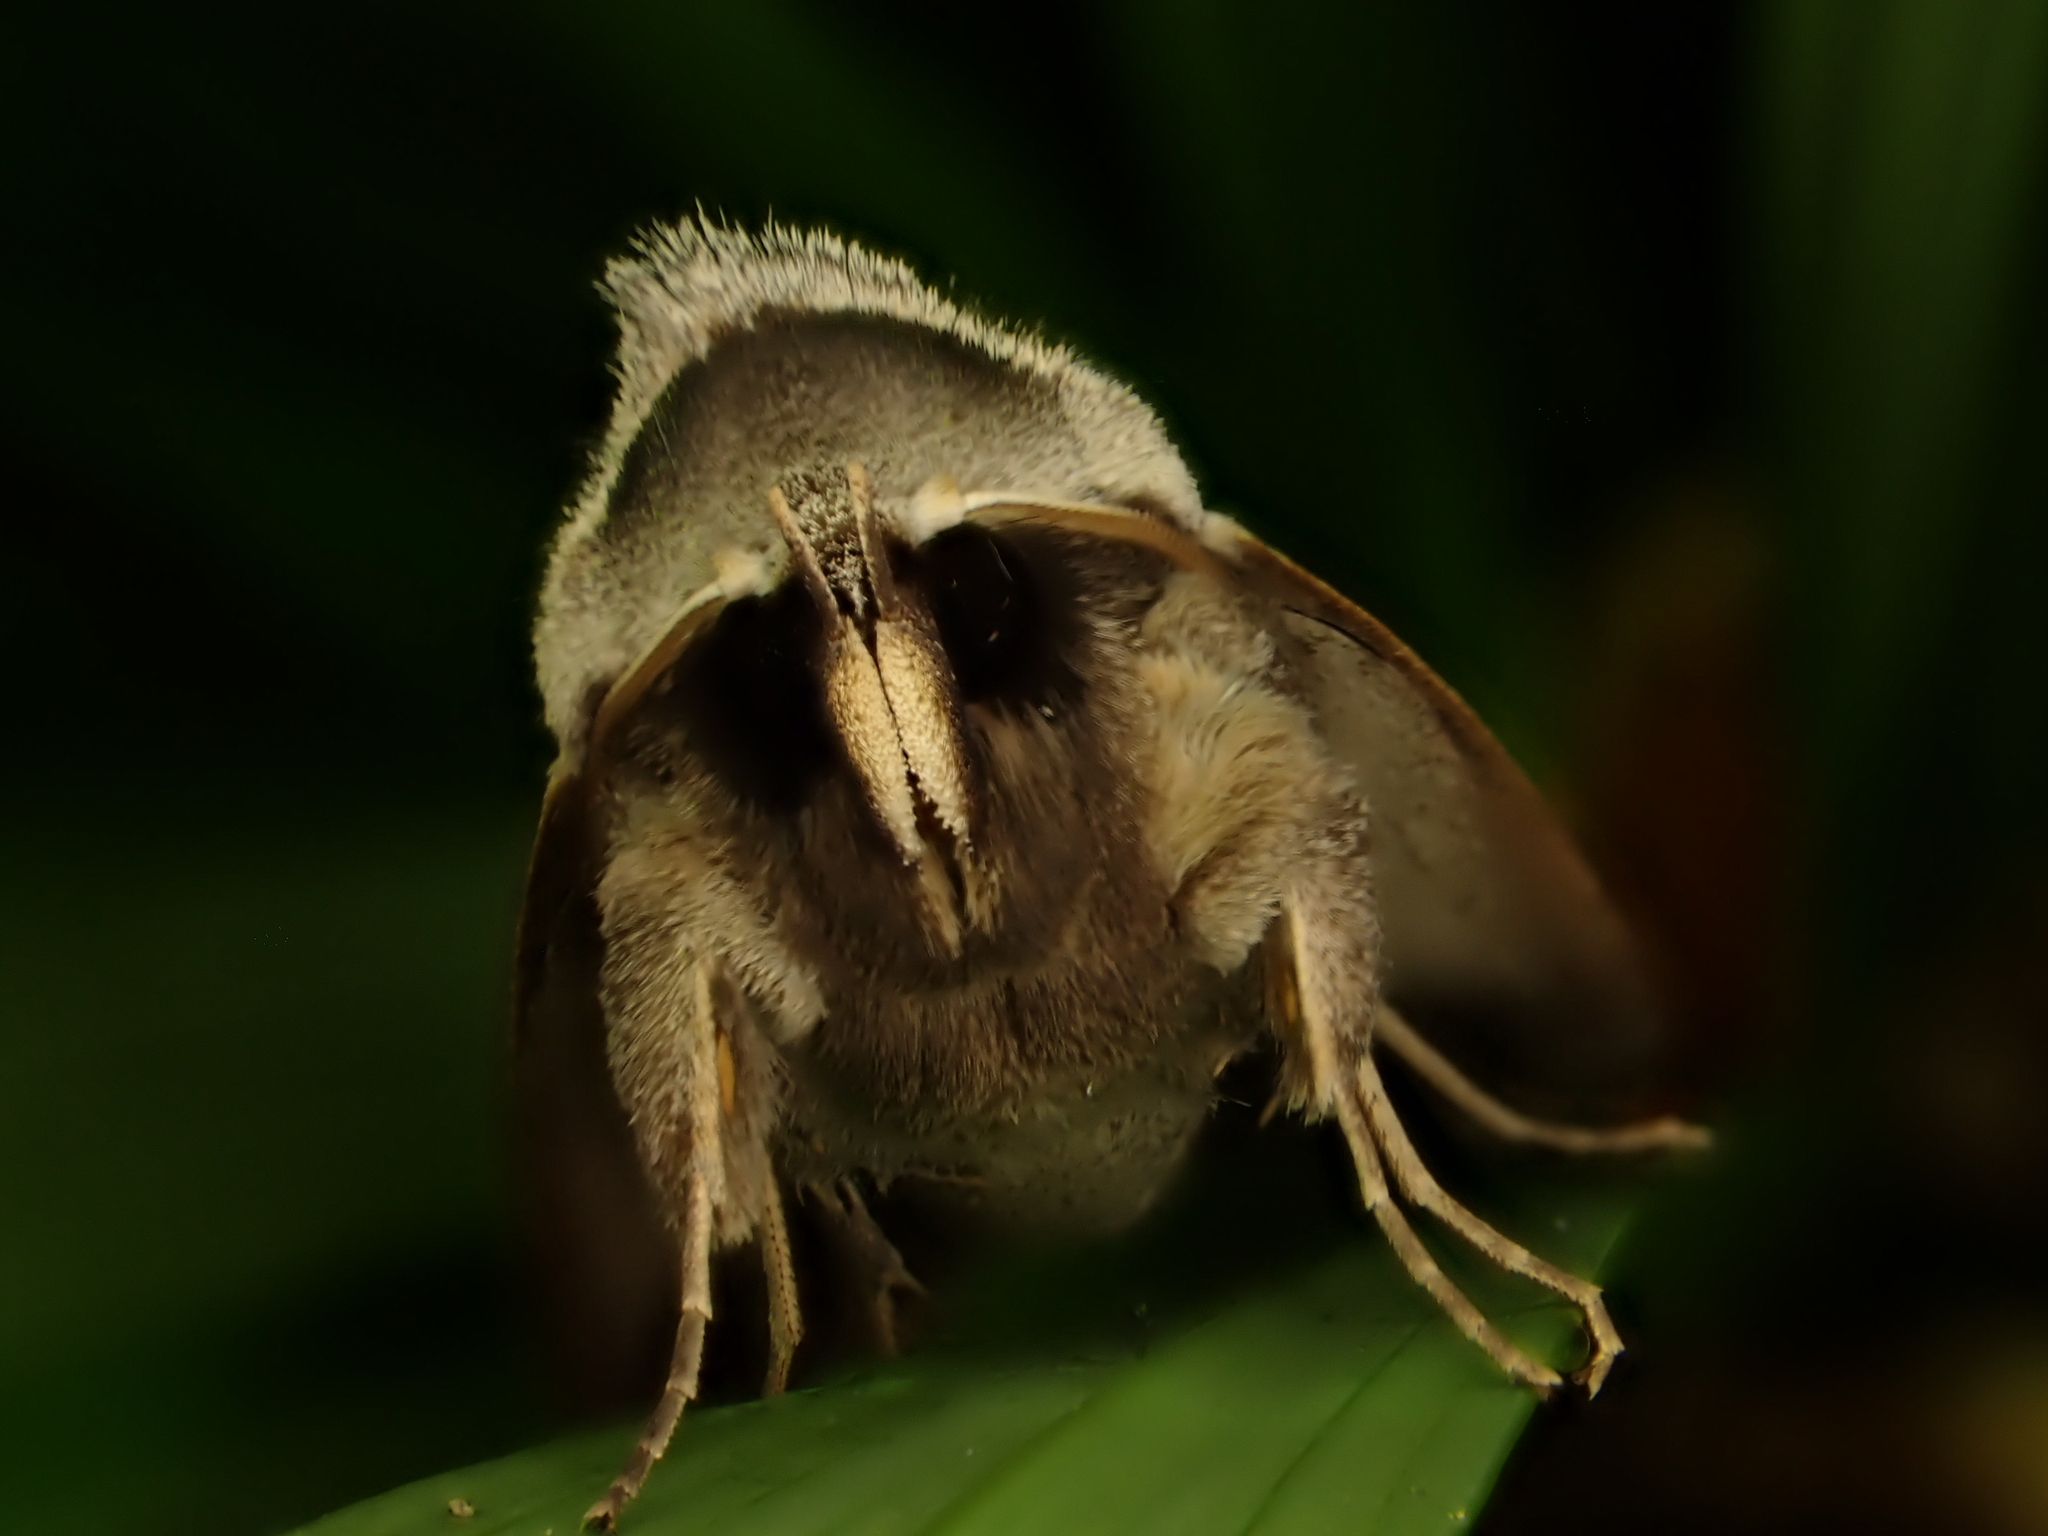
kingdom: Animalia
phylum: Arthropoda
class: Insecta
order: Lepidoptera
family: Erebidae
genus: Pantydia
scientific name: Pantydia sparsa
